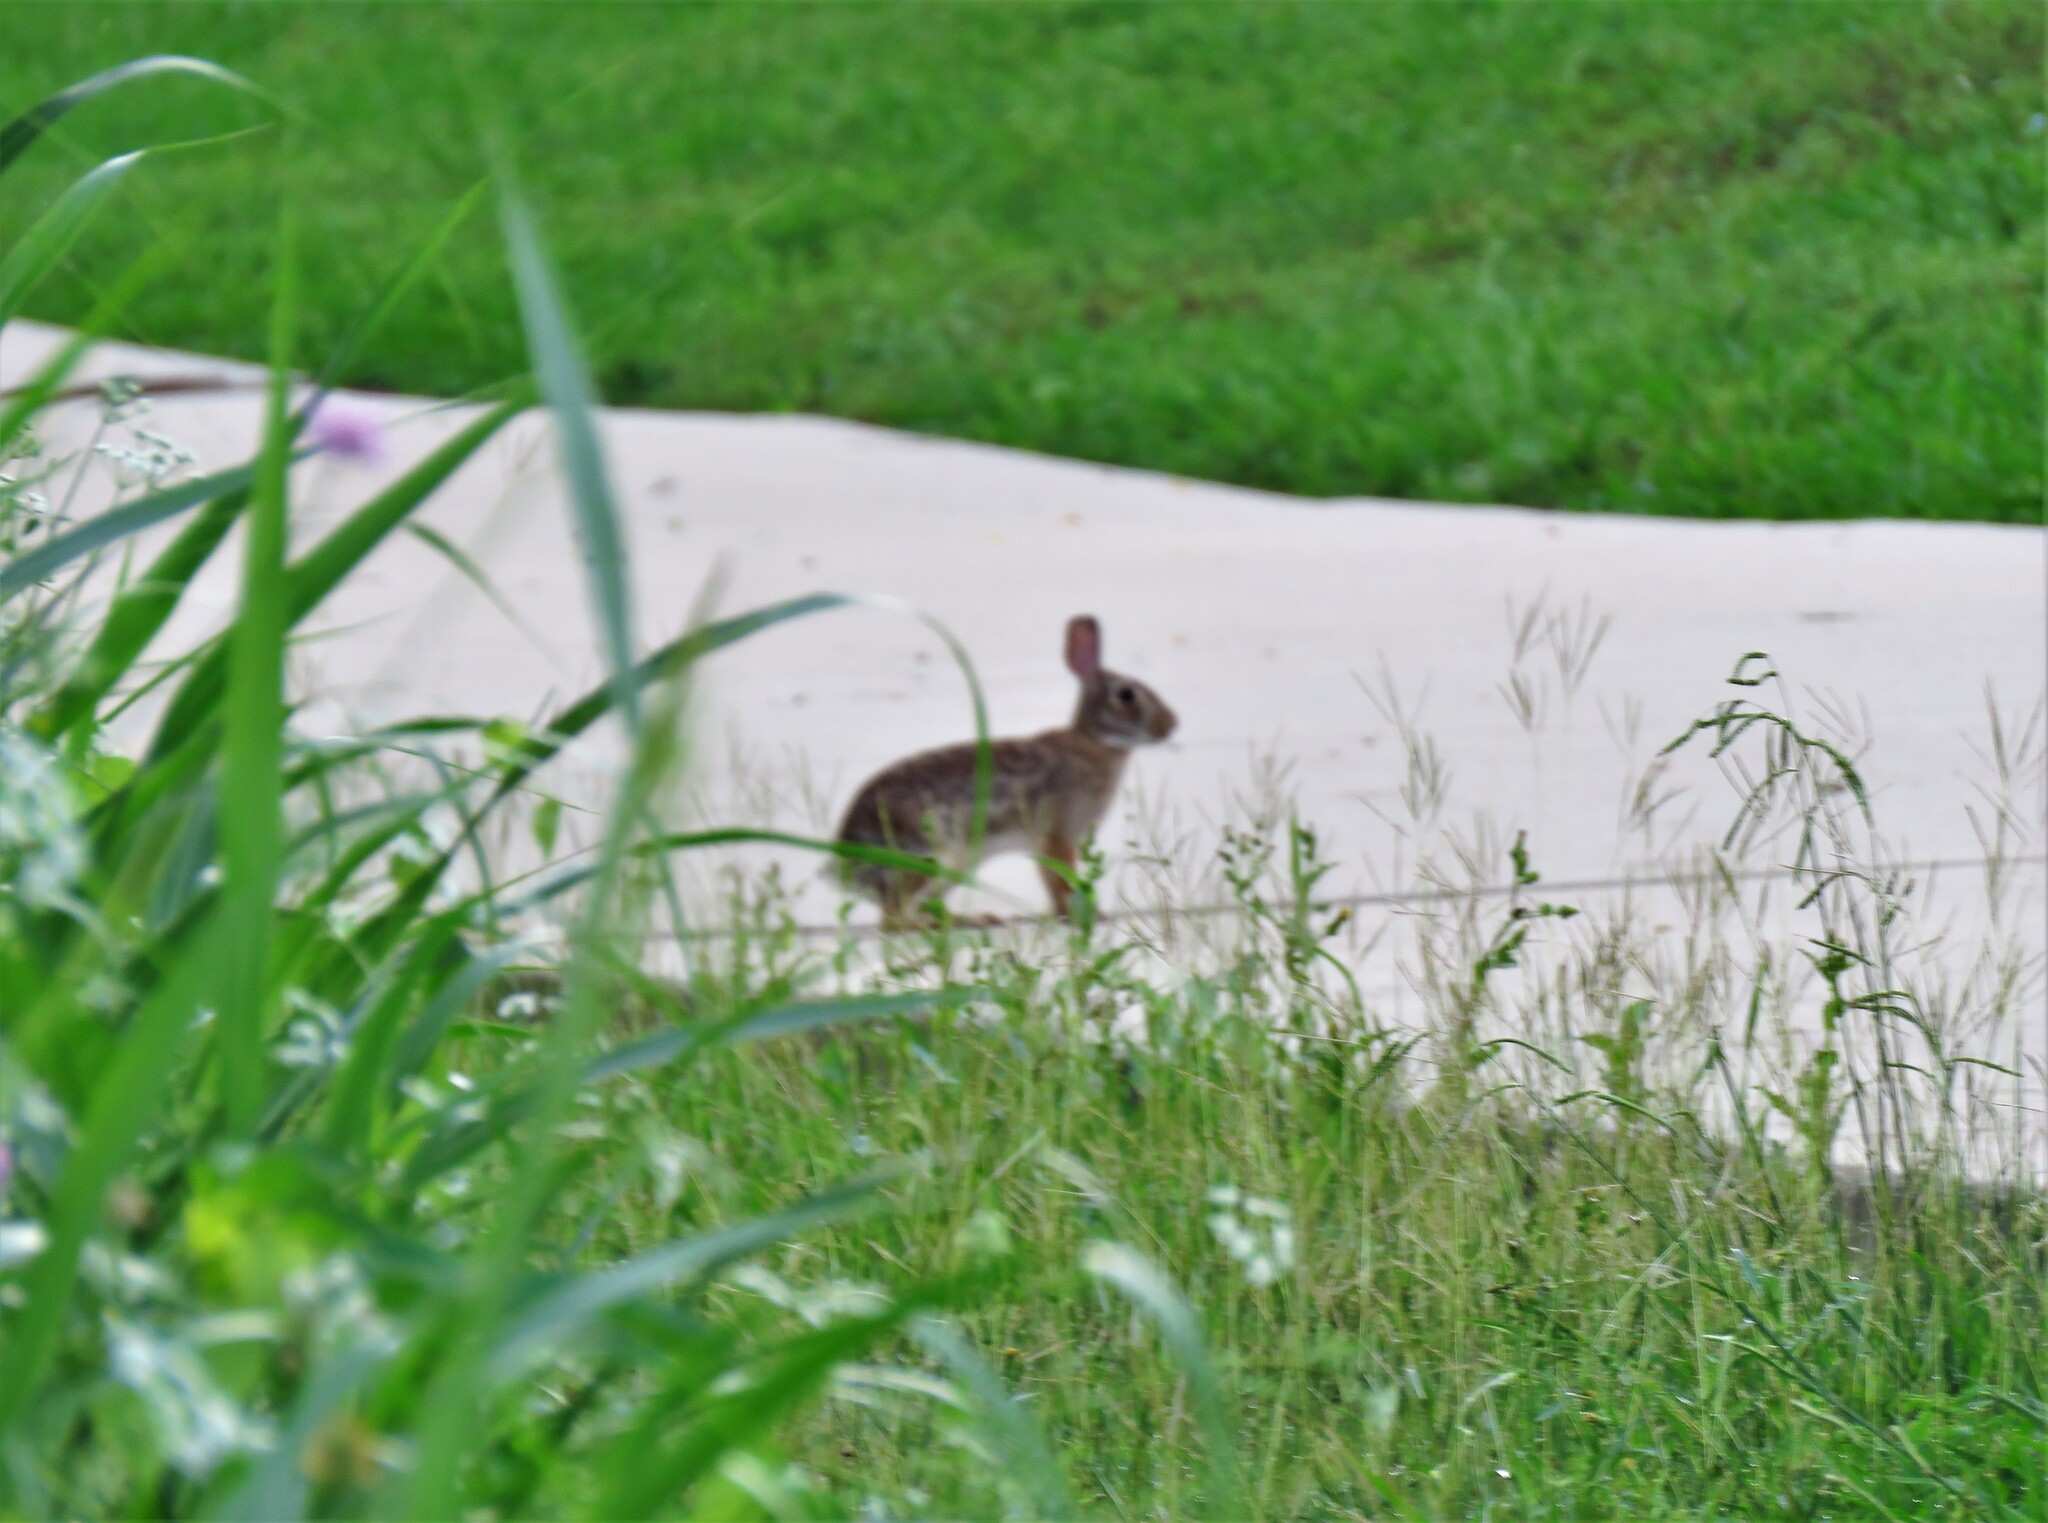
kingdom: Animalia
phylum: Chordata
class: Mammalia
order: Lagomorpha
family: Leporidae
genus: Sylvilagus
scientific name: Sylvilagus floridanus
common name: Eastern cottontail
